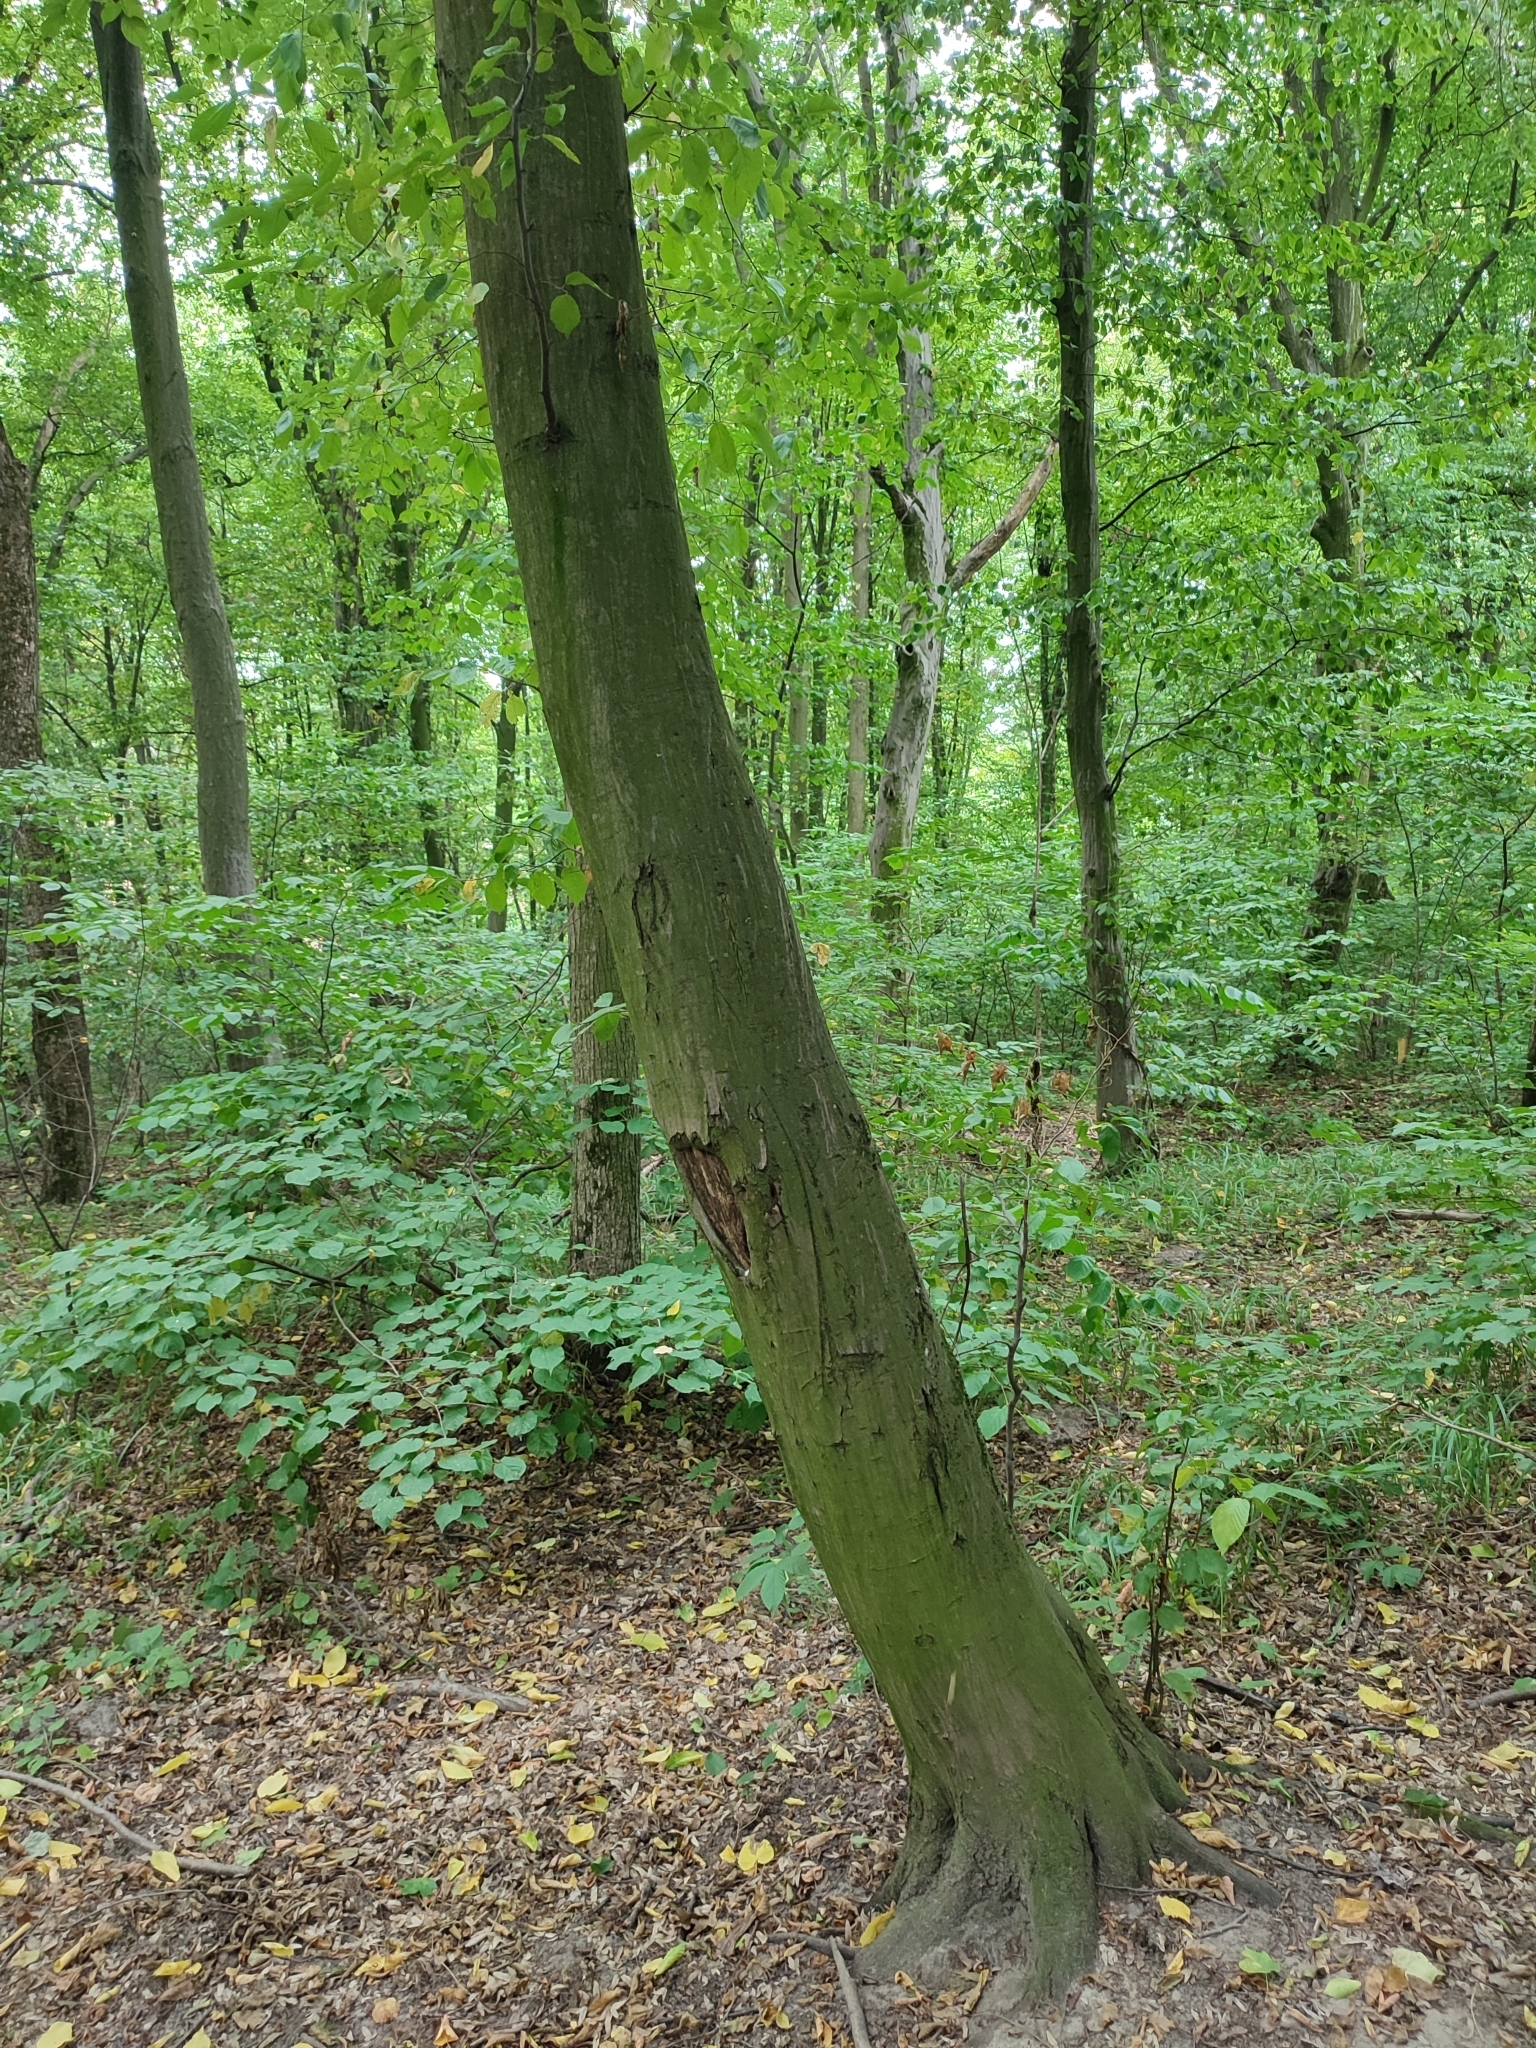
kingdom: Plantae
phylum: Tracheophyta
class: Magnoliopsida
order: Fagales
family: Betulaceae
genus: Carpinus
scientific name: Carpinus betulus
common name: Hornbeam
